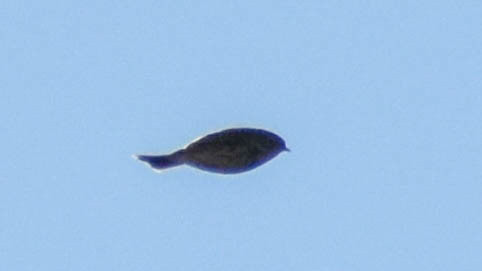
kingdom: Animalia
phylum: Chordata
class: Aves
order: Passeriformes
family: Alaudidae
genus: Lullula
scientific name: Lullula arborea
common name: Woodlark
